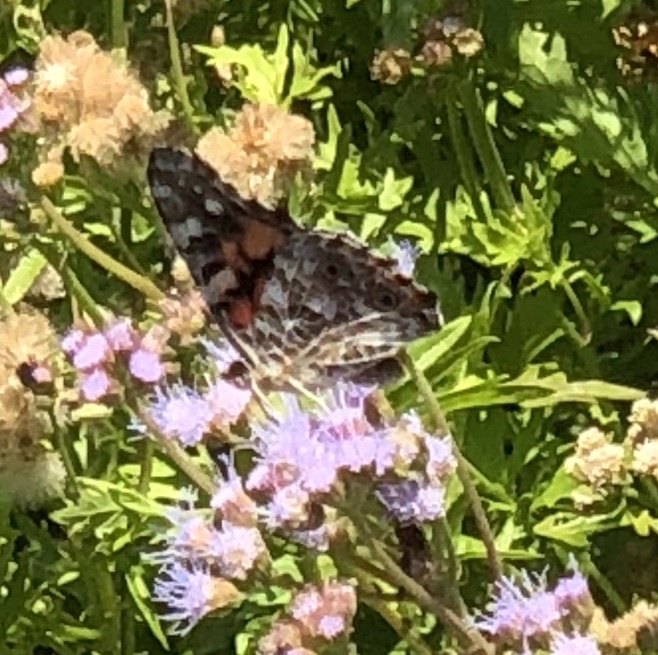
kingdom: Animalia
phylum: Arthropoda
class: Insecta
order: Lepidoptera
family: Nymphalidae
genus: Vanessa
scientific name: Vanessa cardui
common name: Painted lady
